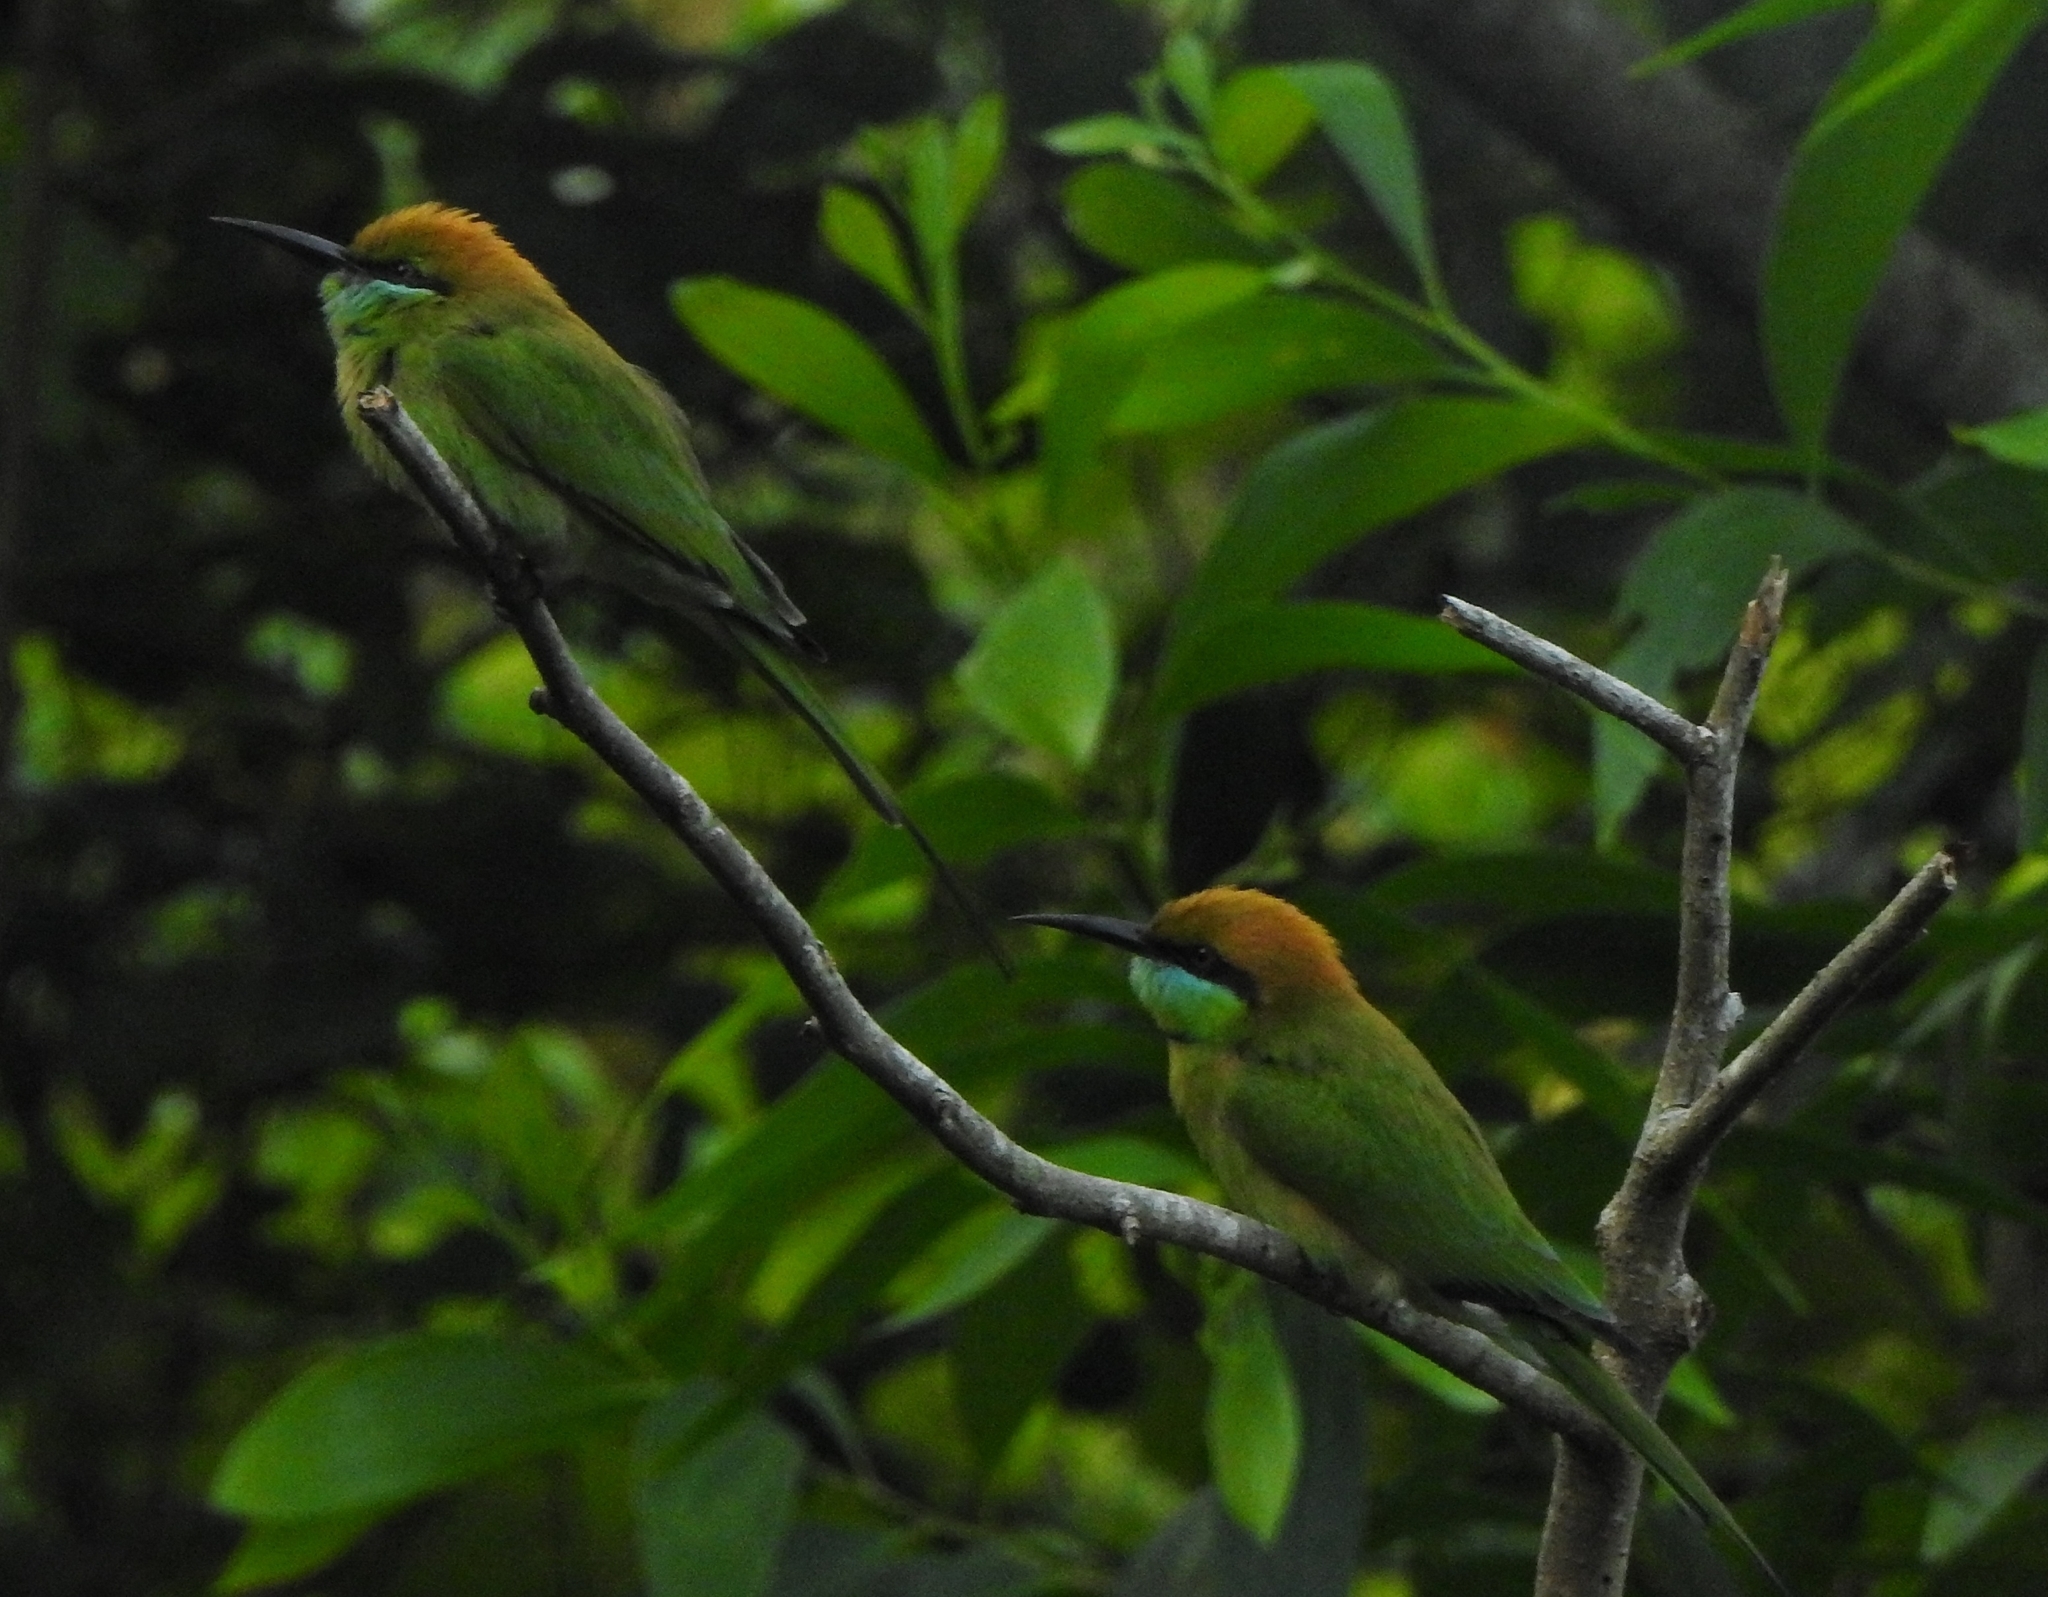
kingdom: Animalia
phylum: Chordata
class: Aves
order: Coraciiformes
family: Meropidae
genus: Merops
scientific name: Merops orientalis
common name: Green bee-eater
